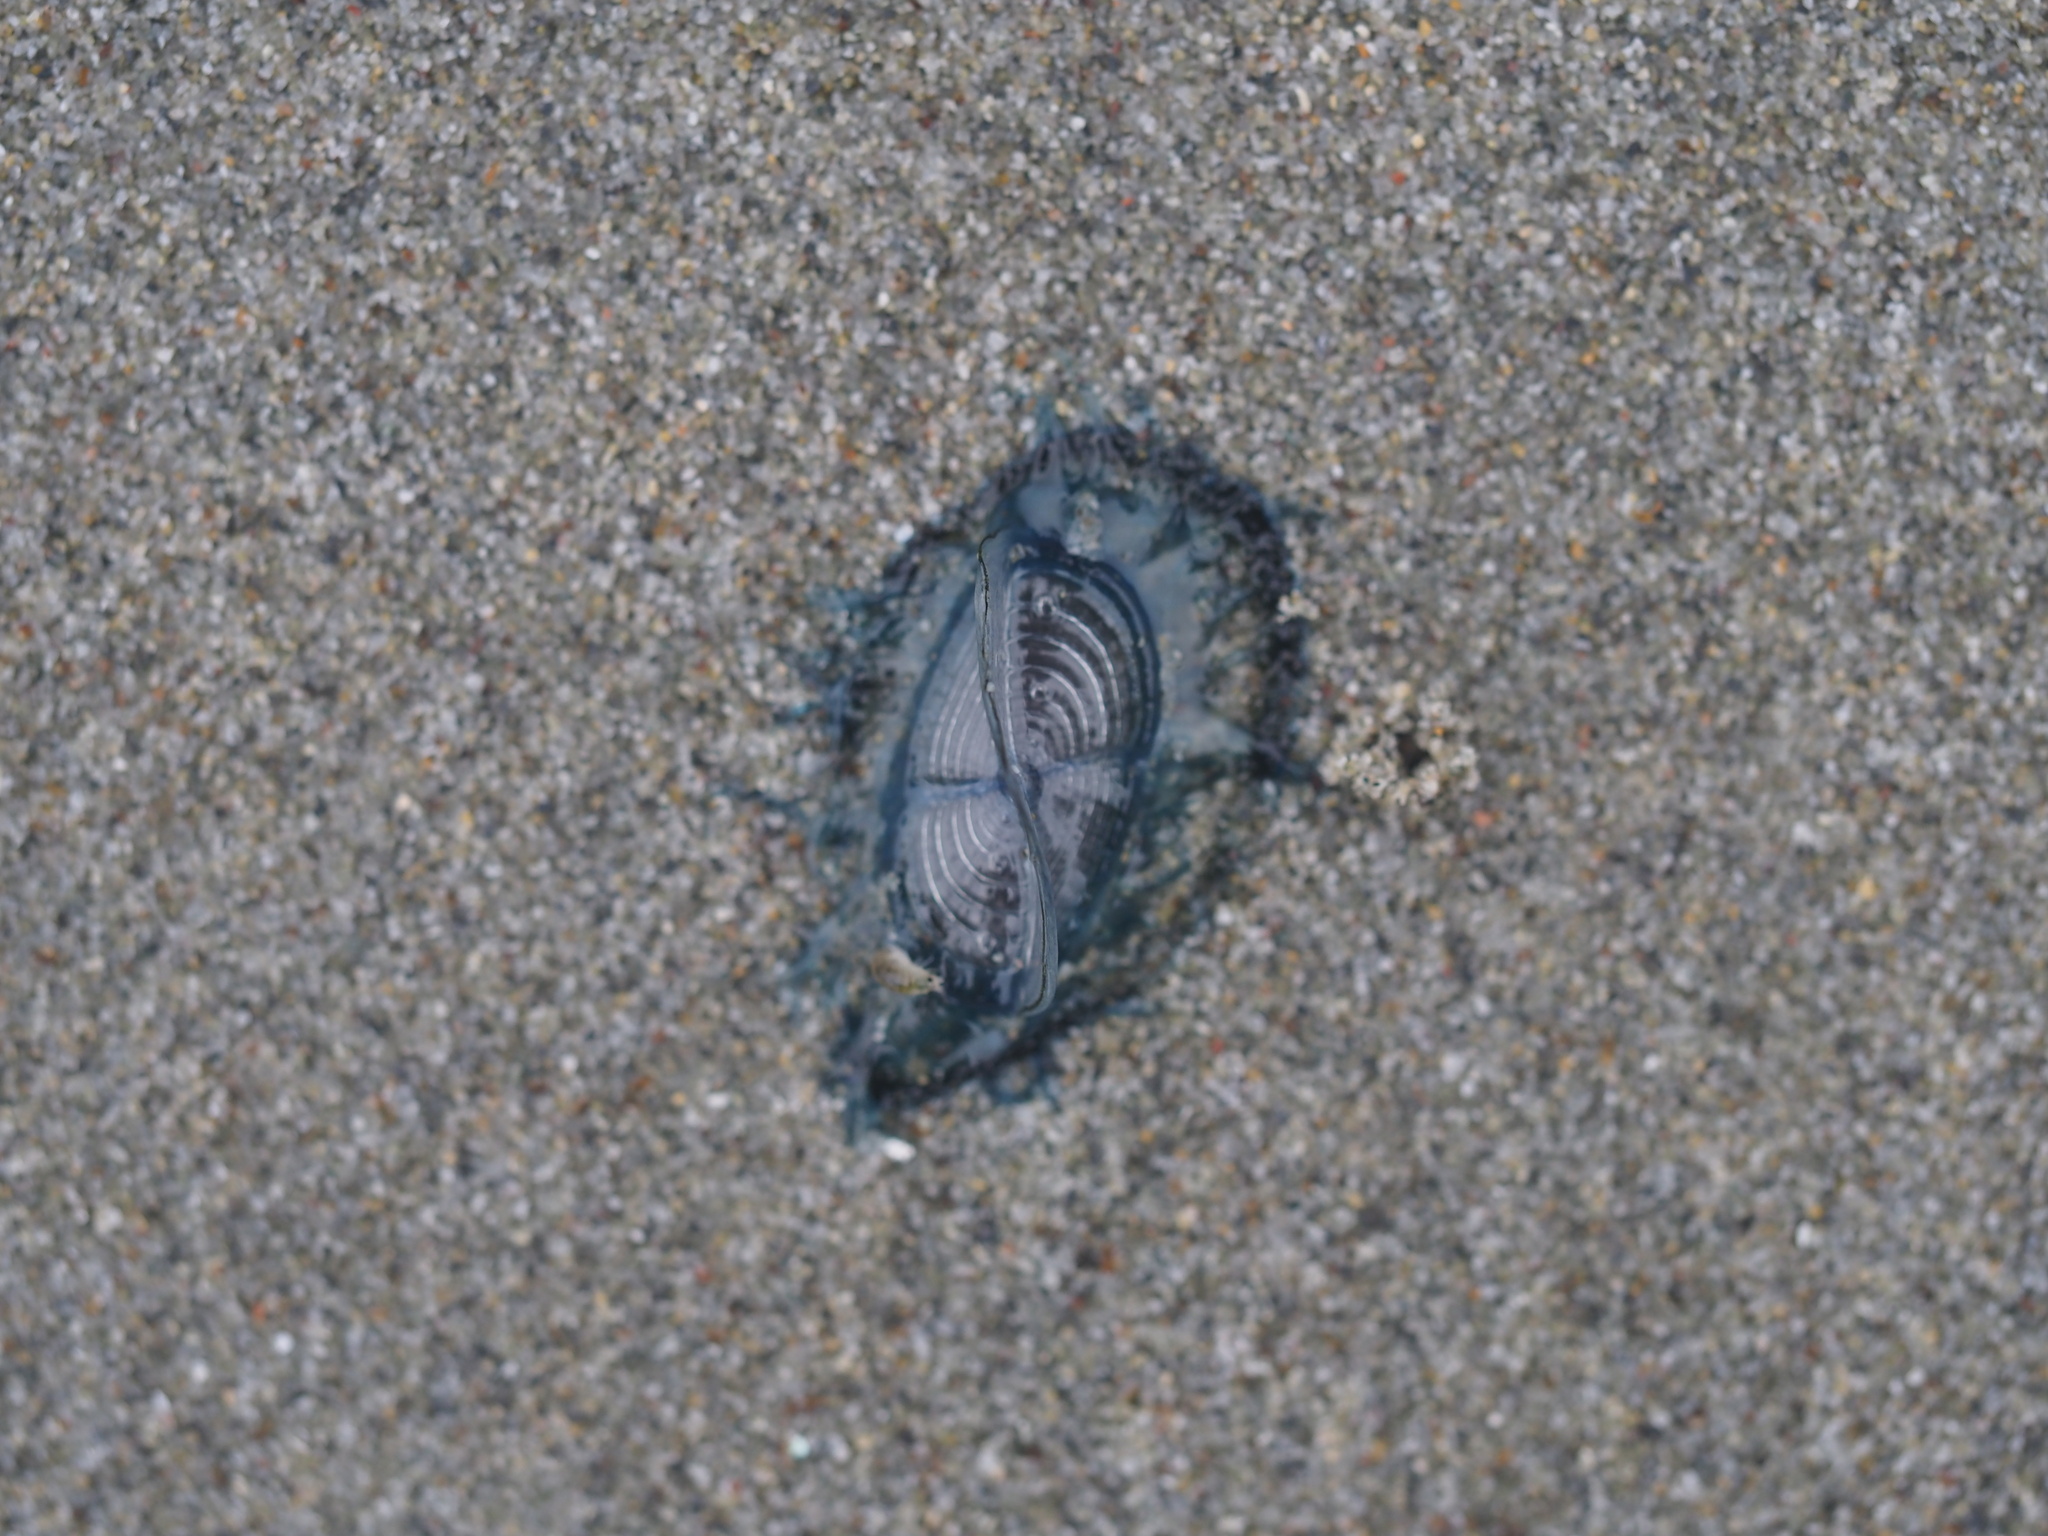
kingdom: Animalia
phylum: Cnidaria
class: Hydrozoa
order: Anthoathecata
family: Porpitidae
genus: Velella
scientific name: Velella velella
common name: By-the-wind-sailor
